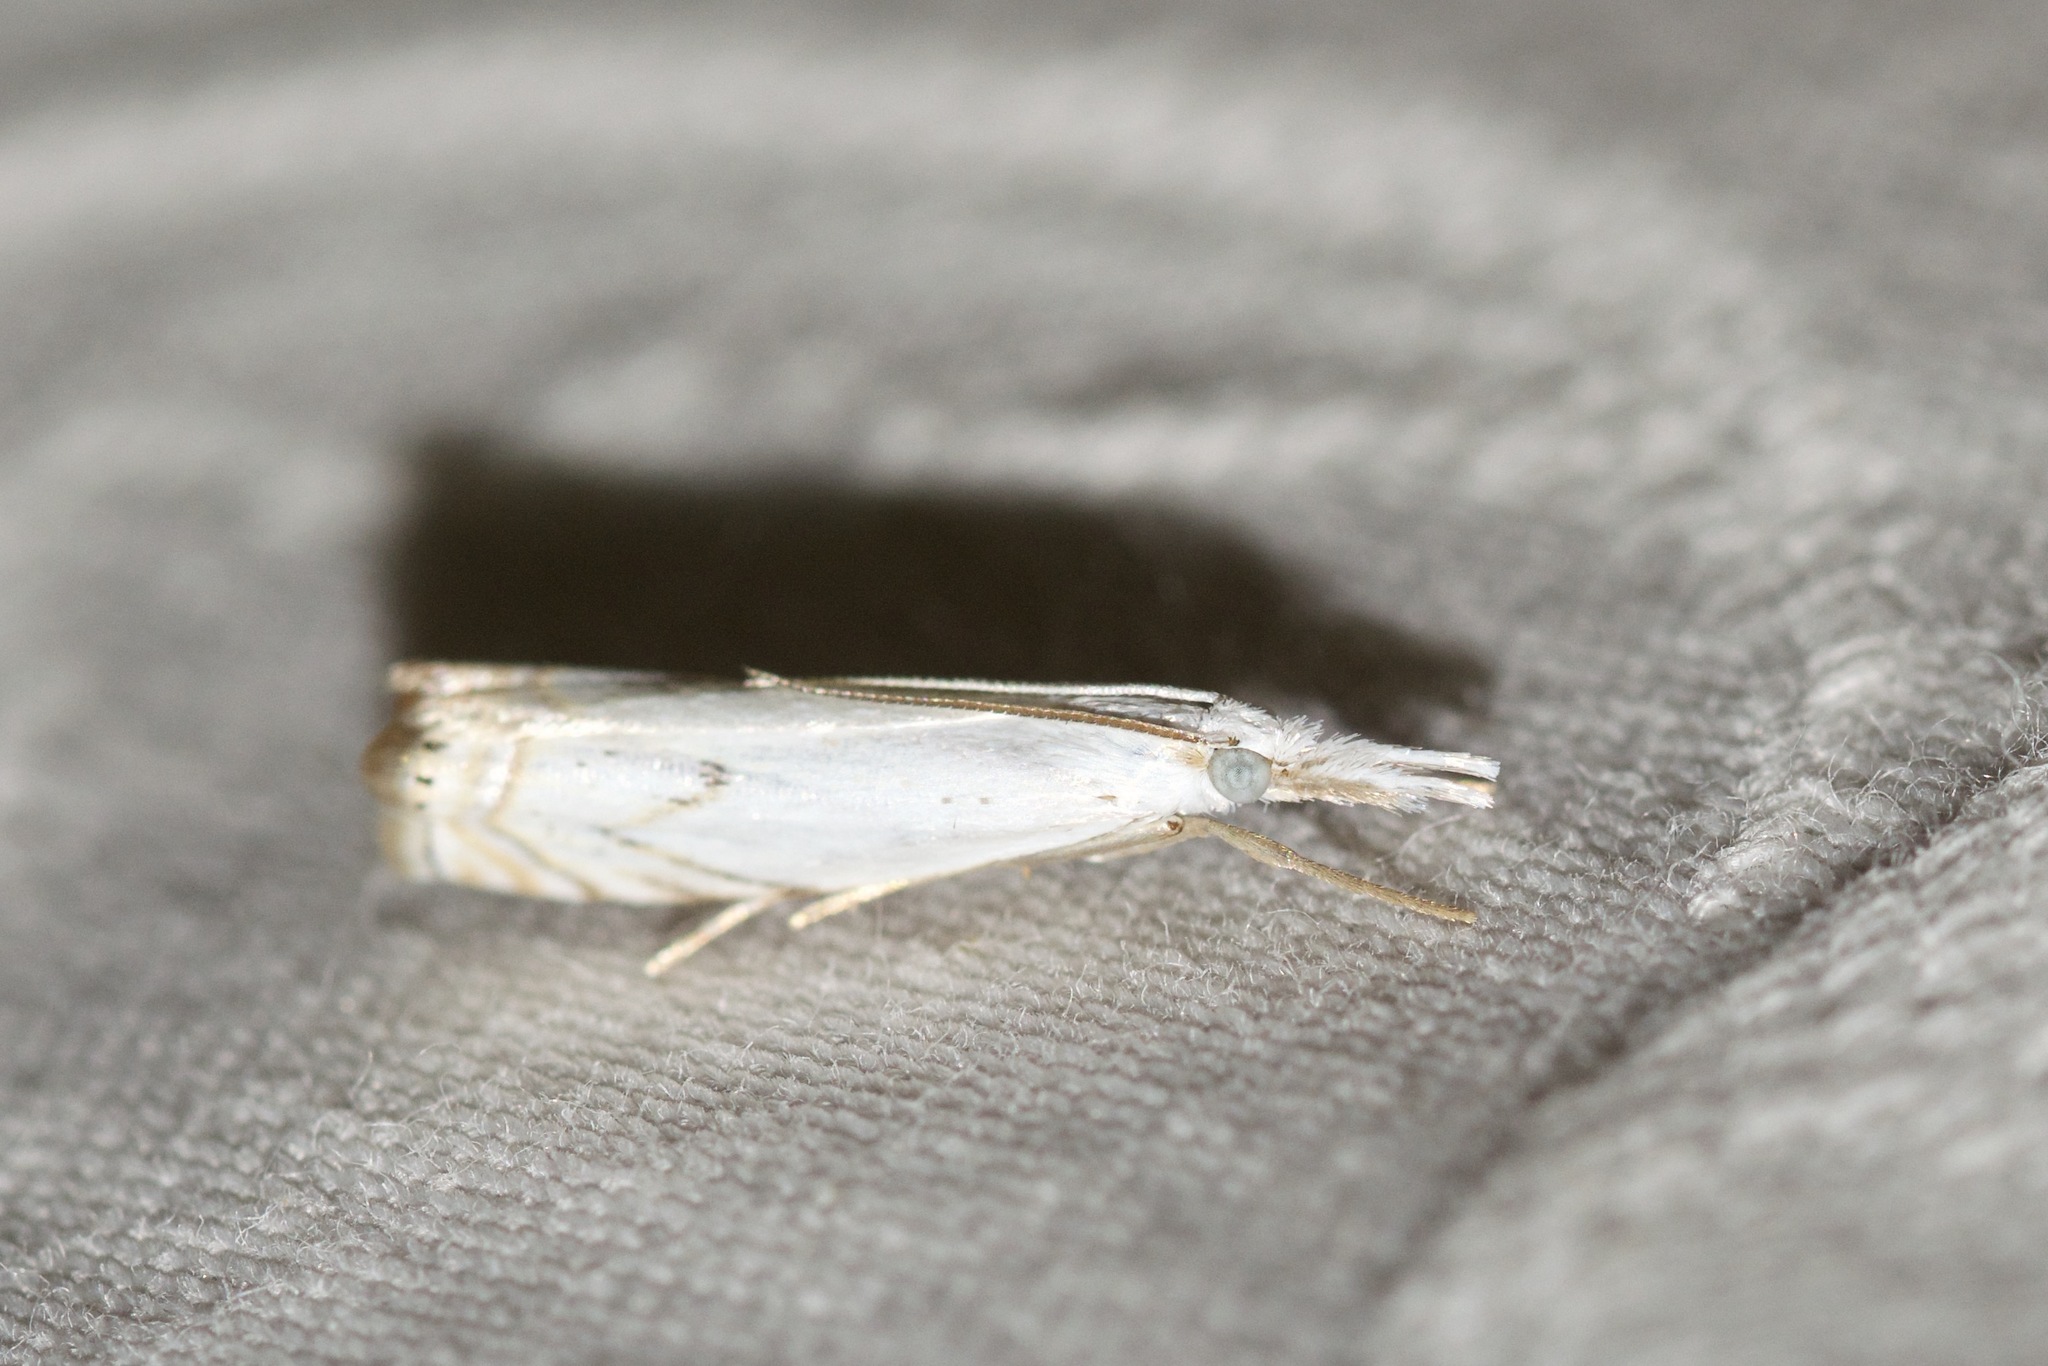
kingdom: Animalia
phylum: Arthropoda
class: Insecta
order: Lepidoptera
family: Crambidae
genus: Crambus
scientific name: Crambus albellus
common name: Small white grass-veneer
